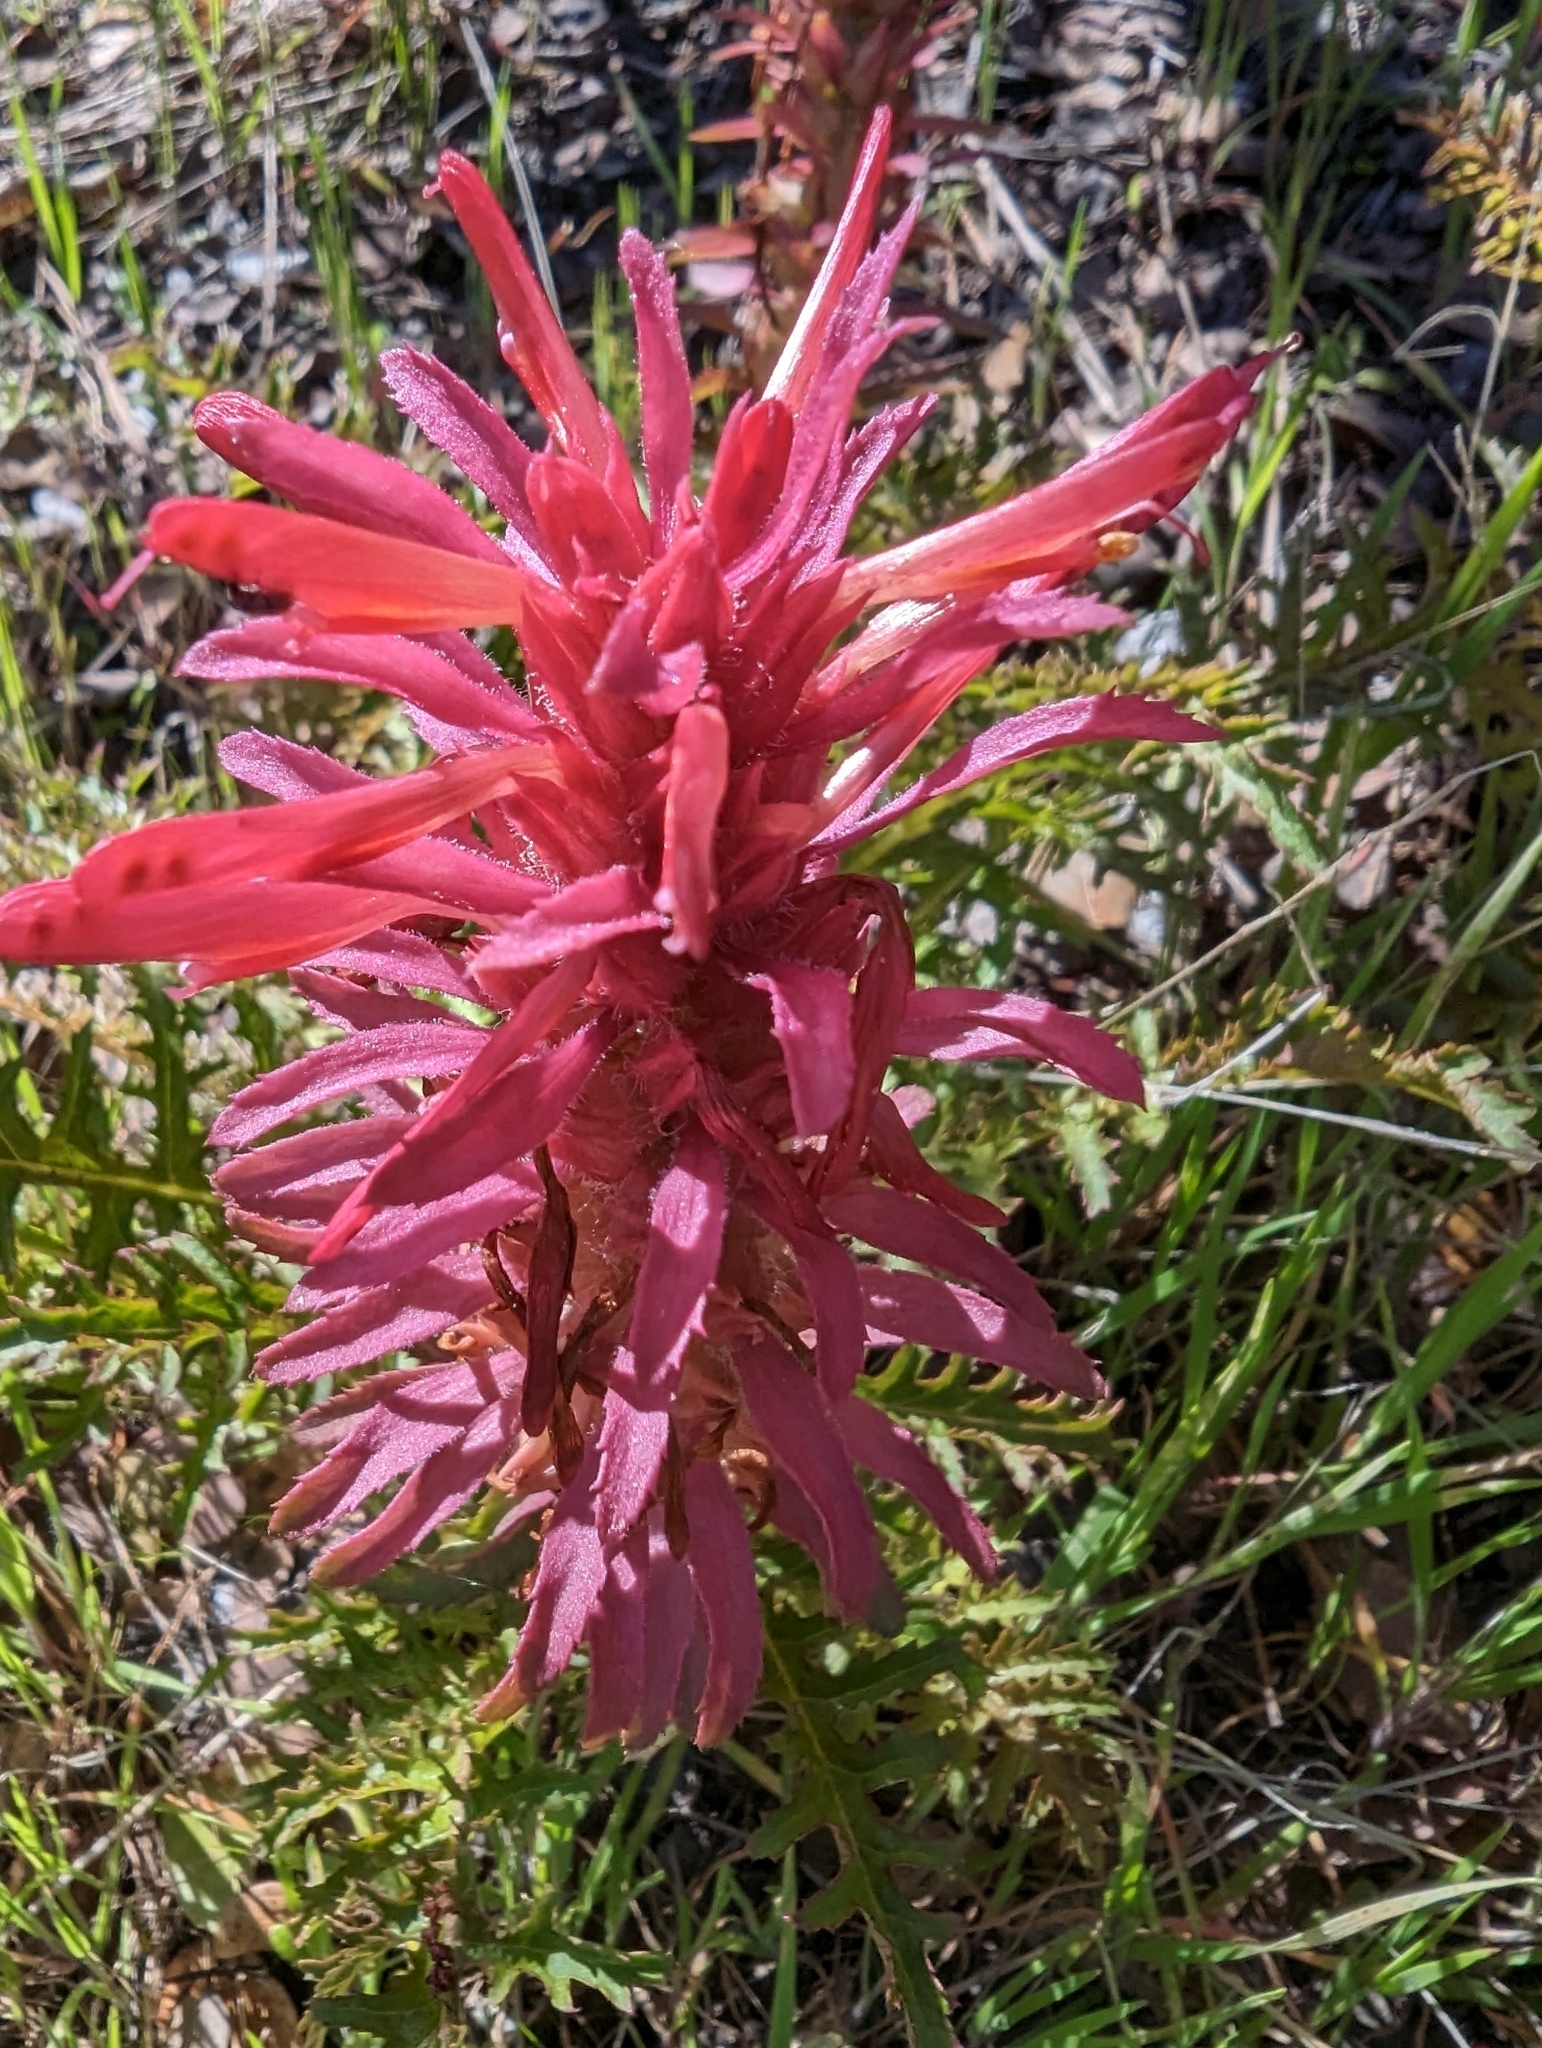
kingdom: Plantae
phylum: Tracheophyta
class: Magnoliopsida
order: Lamiales
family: Orobanchaceae
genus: Pedicularis
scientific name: Pedicularis densiflora
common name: Indian warrior
